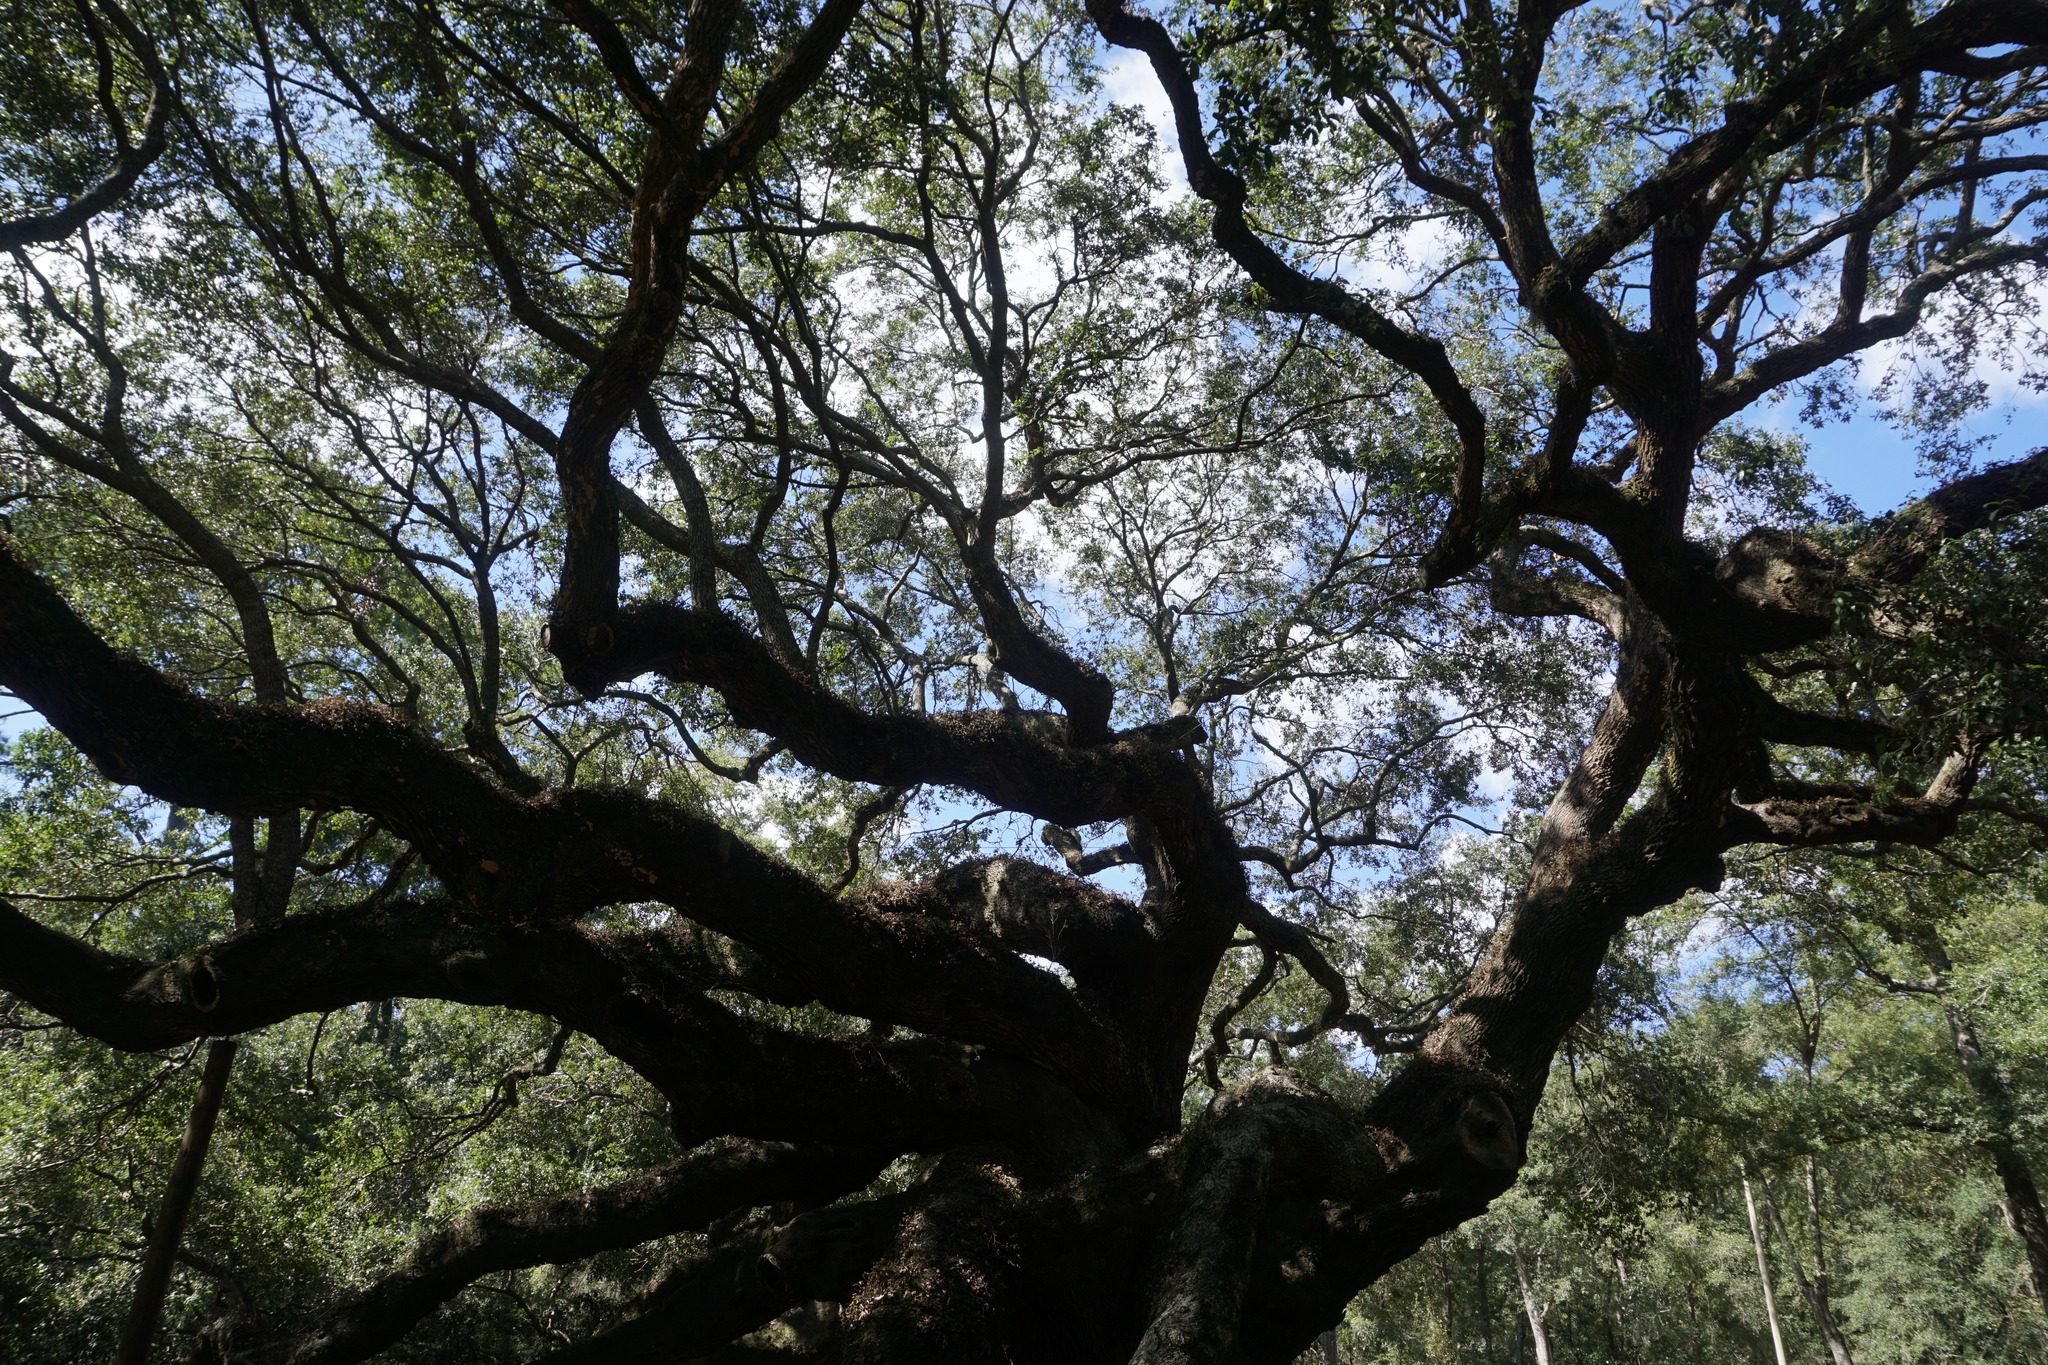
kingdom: Plantae
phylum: Tracheophyta
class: Magnoliopsida
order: Fagales
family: Fagaceae
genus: Quercus
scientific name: Quercus virginiana
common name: Southern live oak
